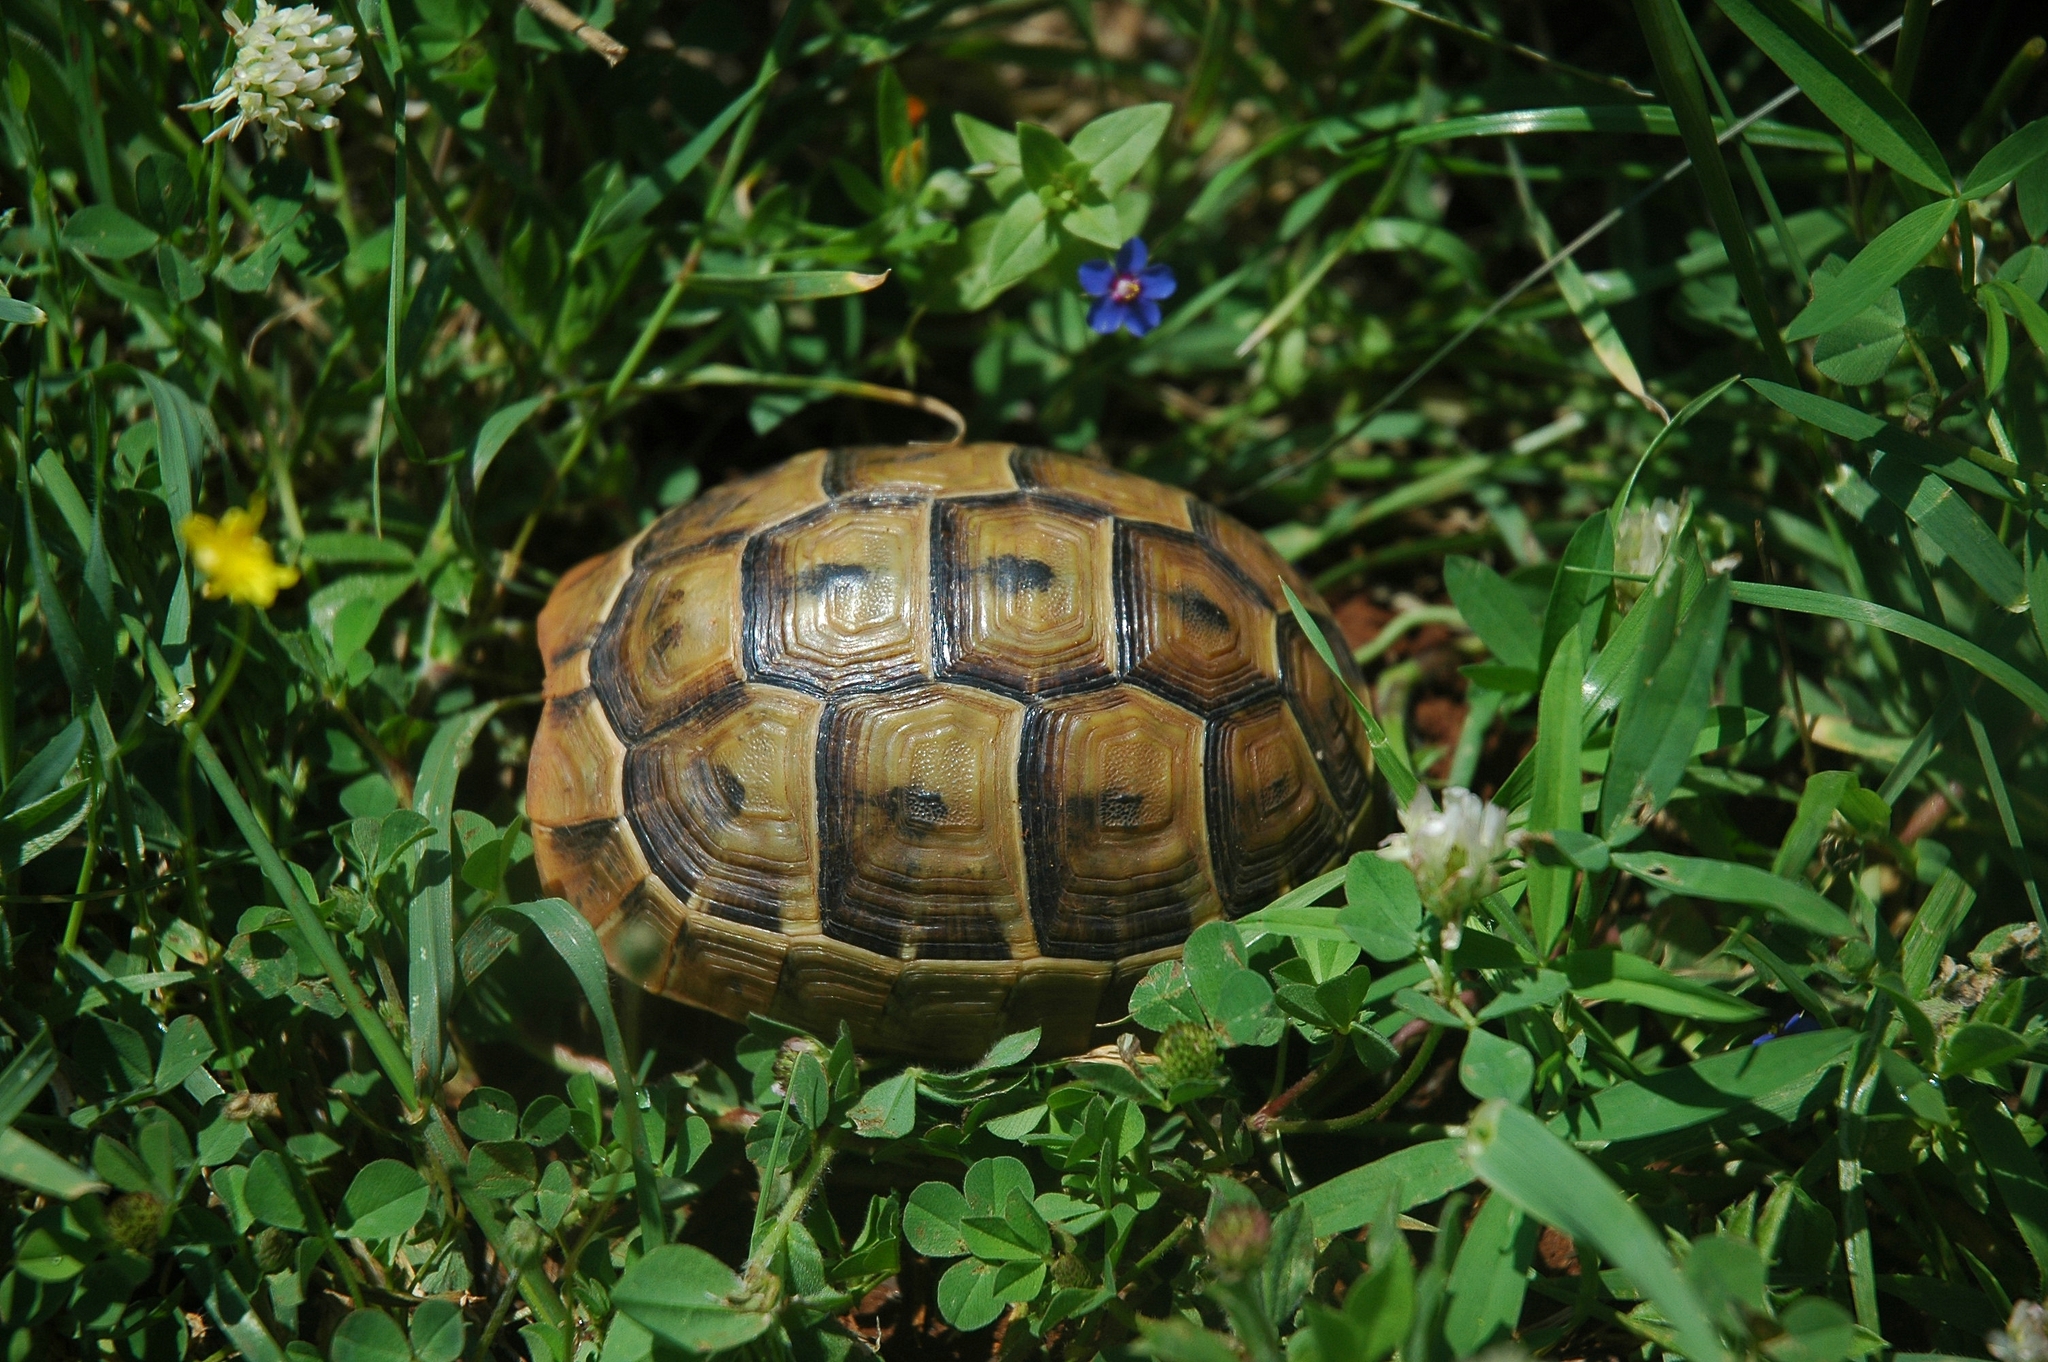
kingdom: Animalia
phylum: Chordata
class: Testudines
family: Testudinidae
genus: Testudo
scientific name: Testudo graeca
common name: Common tortoise
